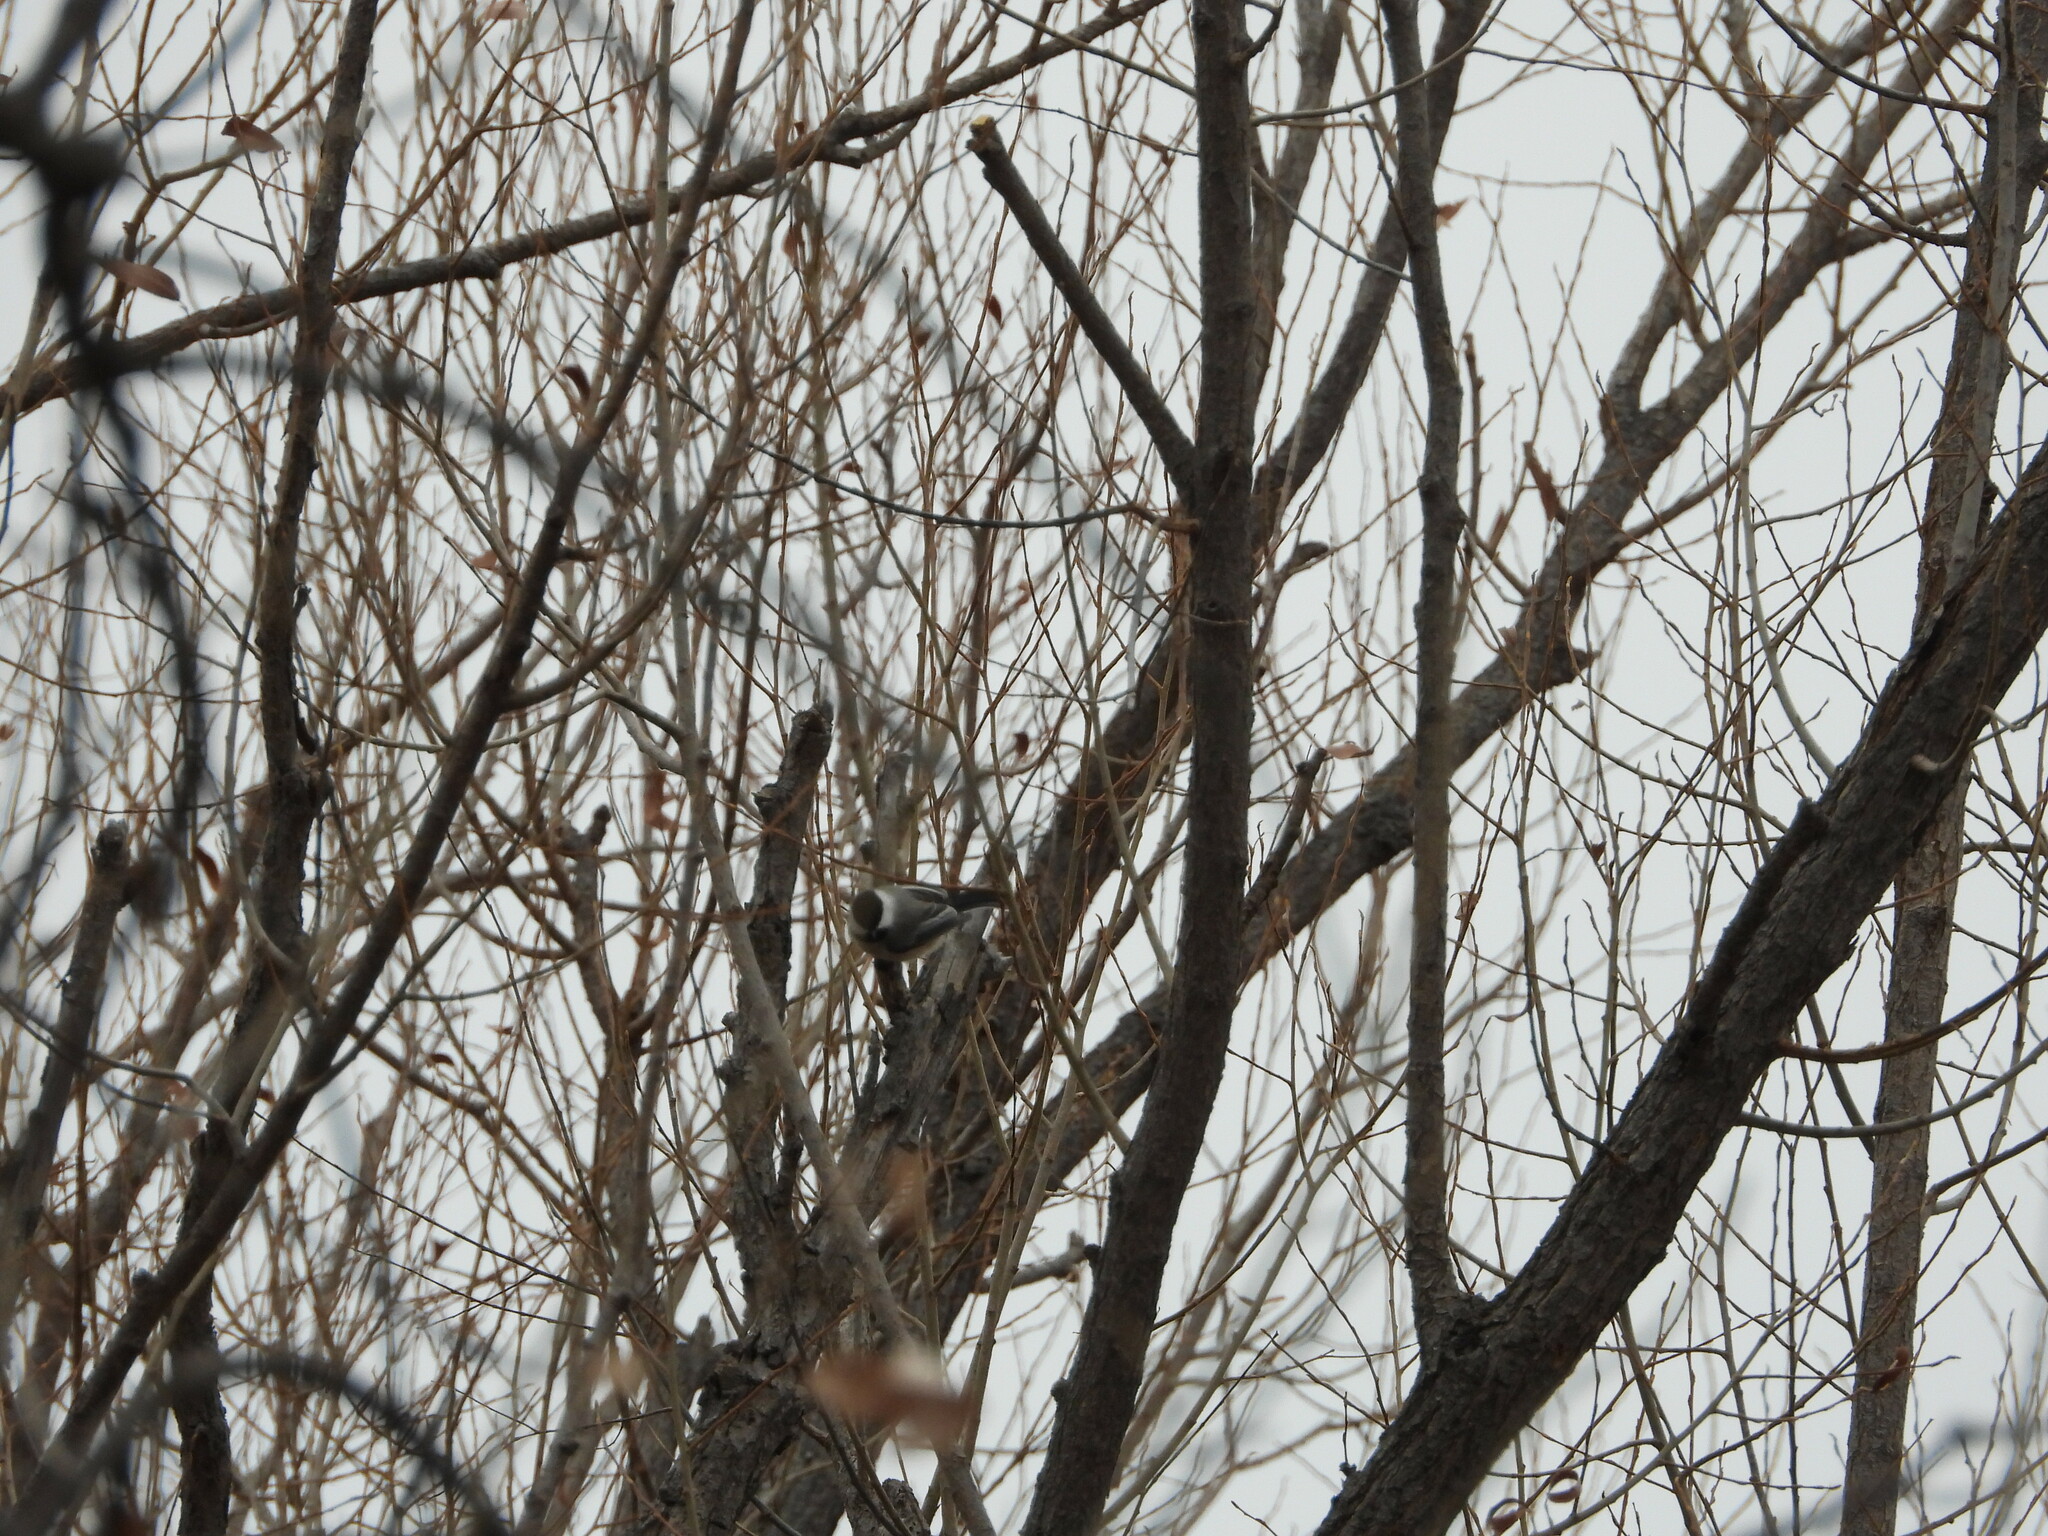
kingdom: Animalia
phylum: Chordata
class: Aves
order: Passeriformes
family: Paridae
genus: Poecile
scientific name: Poecile atricapillus
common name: Black-capped chickadee
